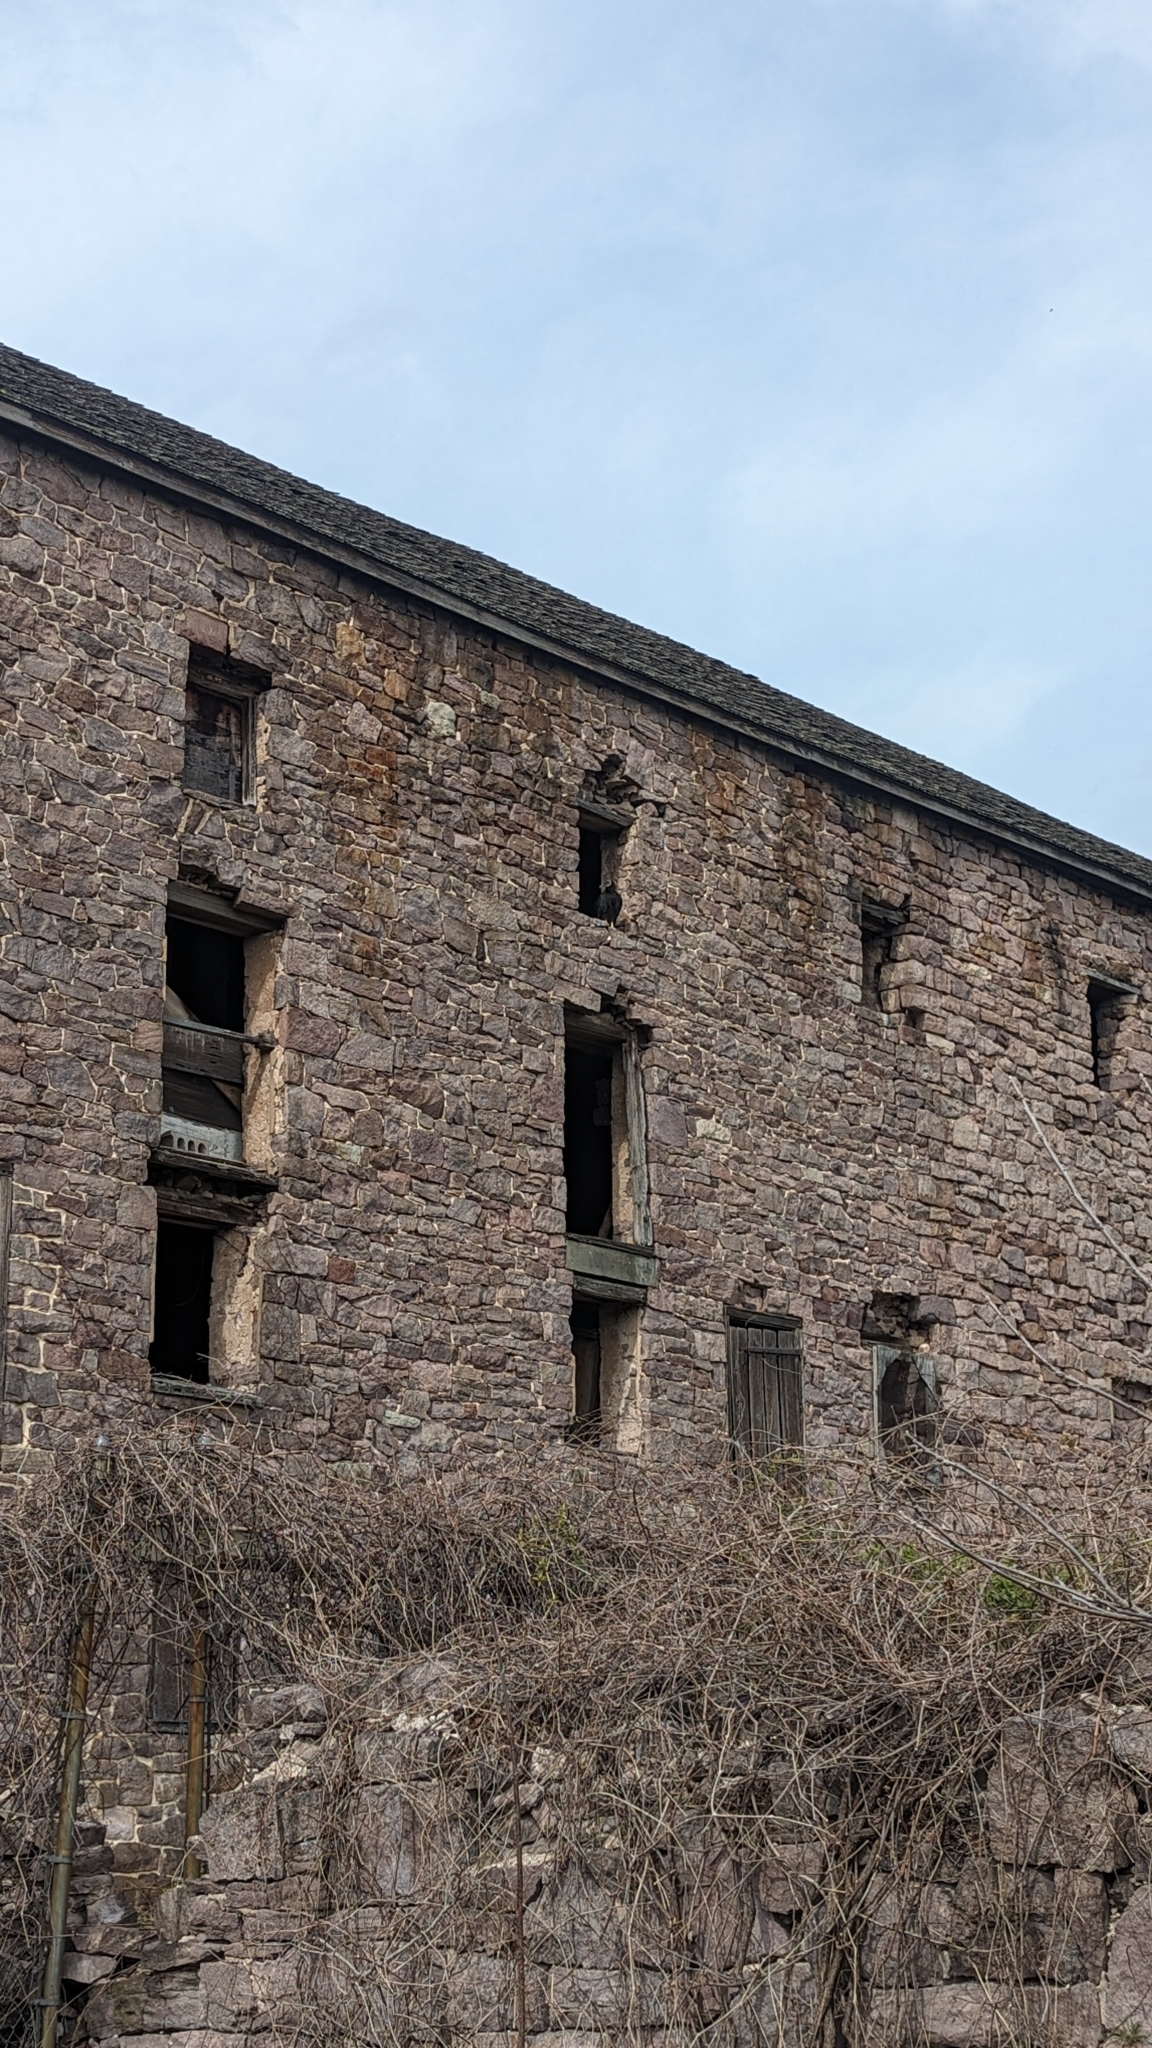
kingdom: Animalia
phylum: Chordata
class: Aves
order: Accipitriformes
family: Cathartidae
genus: Coragyps
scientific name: Coragyps atratus
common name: Black vulture
